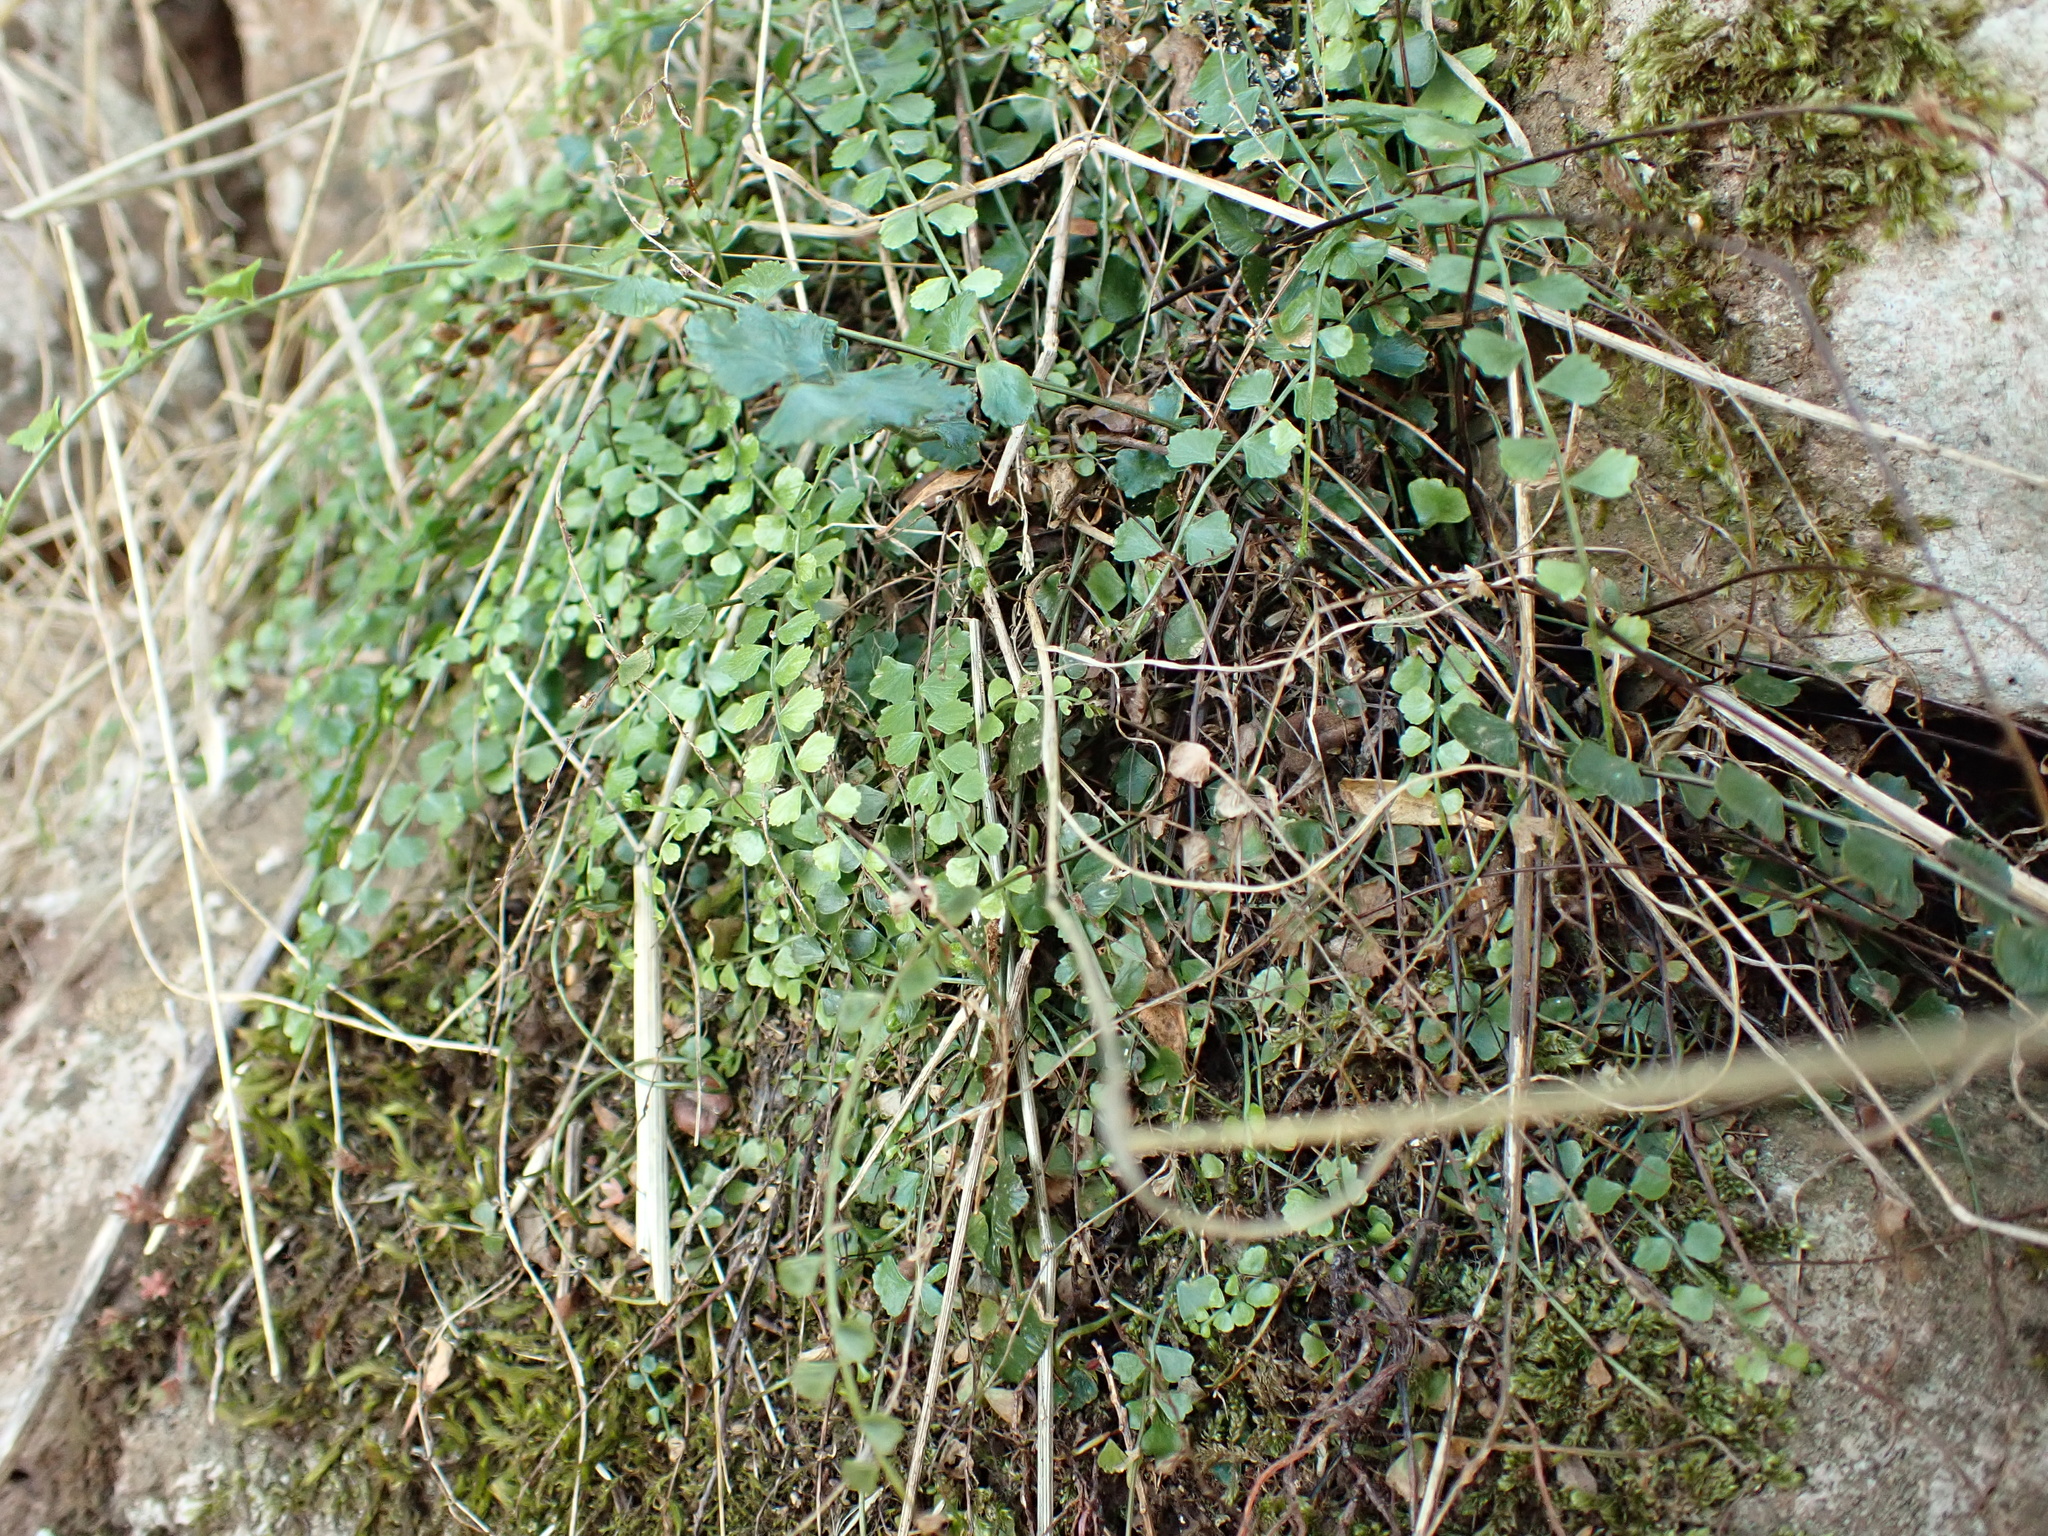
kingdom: Plantae
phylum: Tracheophyta
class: Polypodiopsida
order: Polypodiales
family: Aspleniaceae
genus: Asplenium
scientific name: Asplenium flabellifolium
